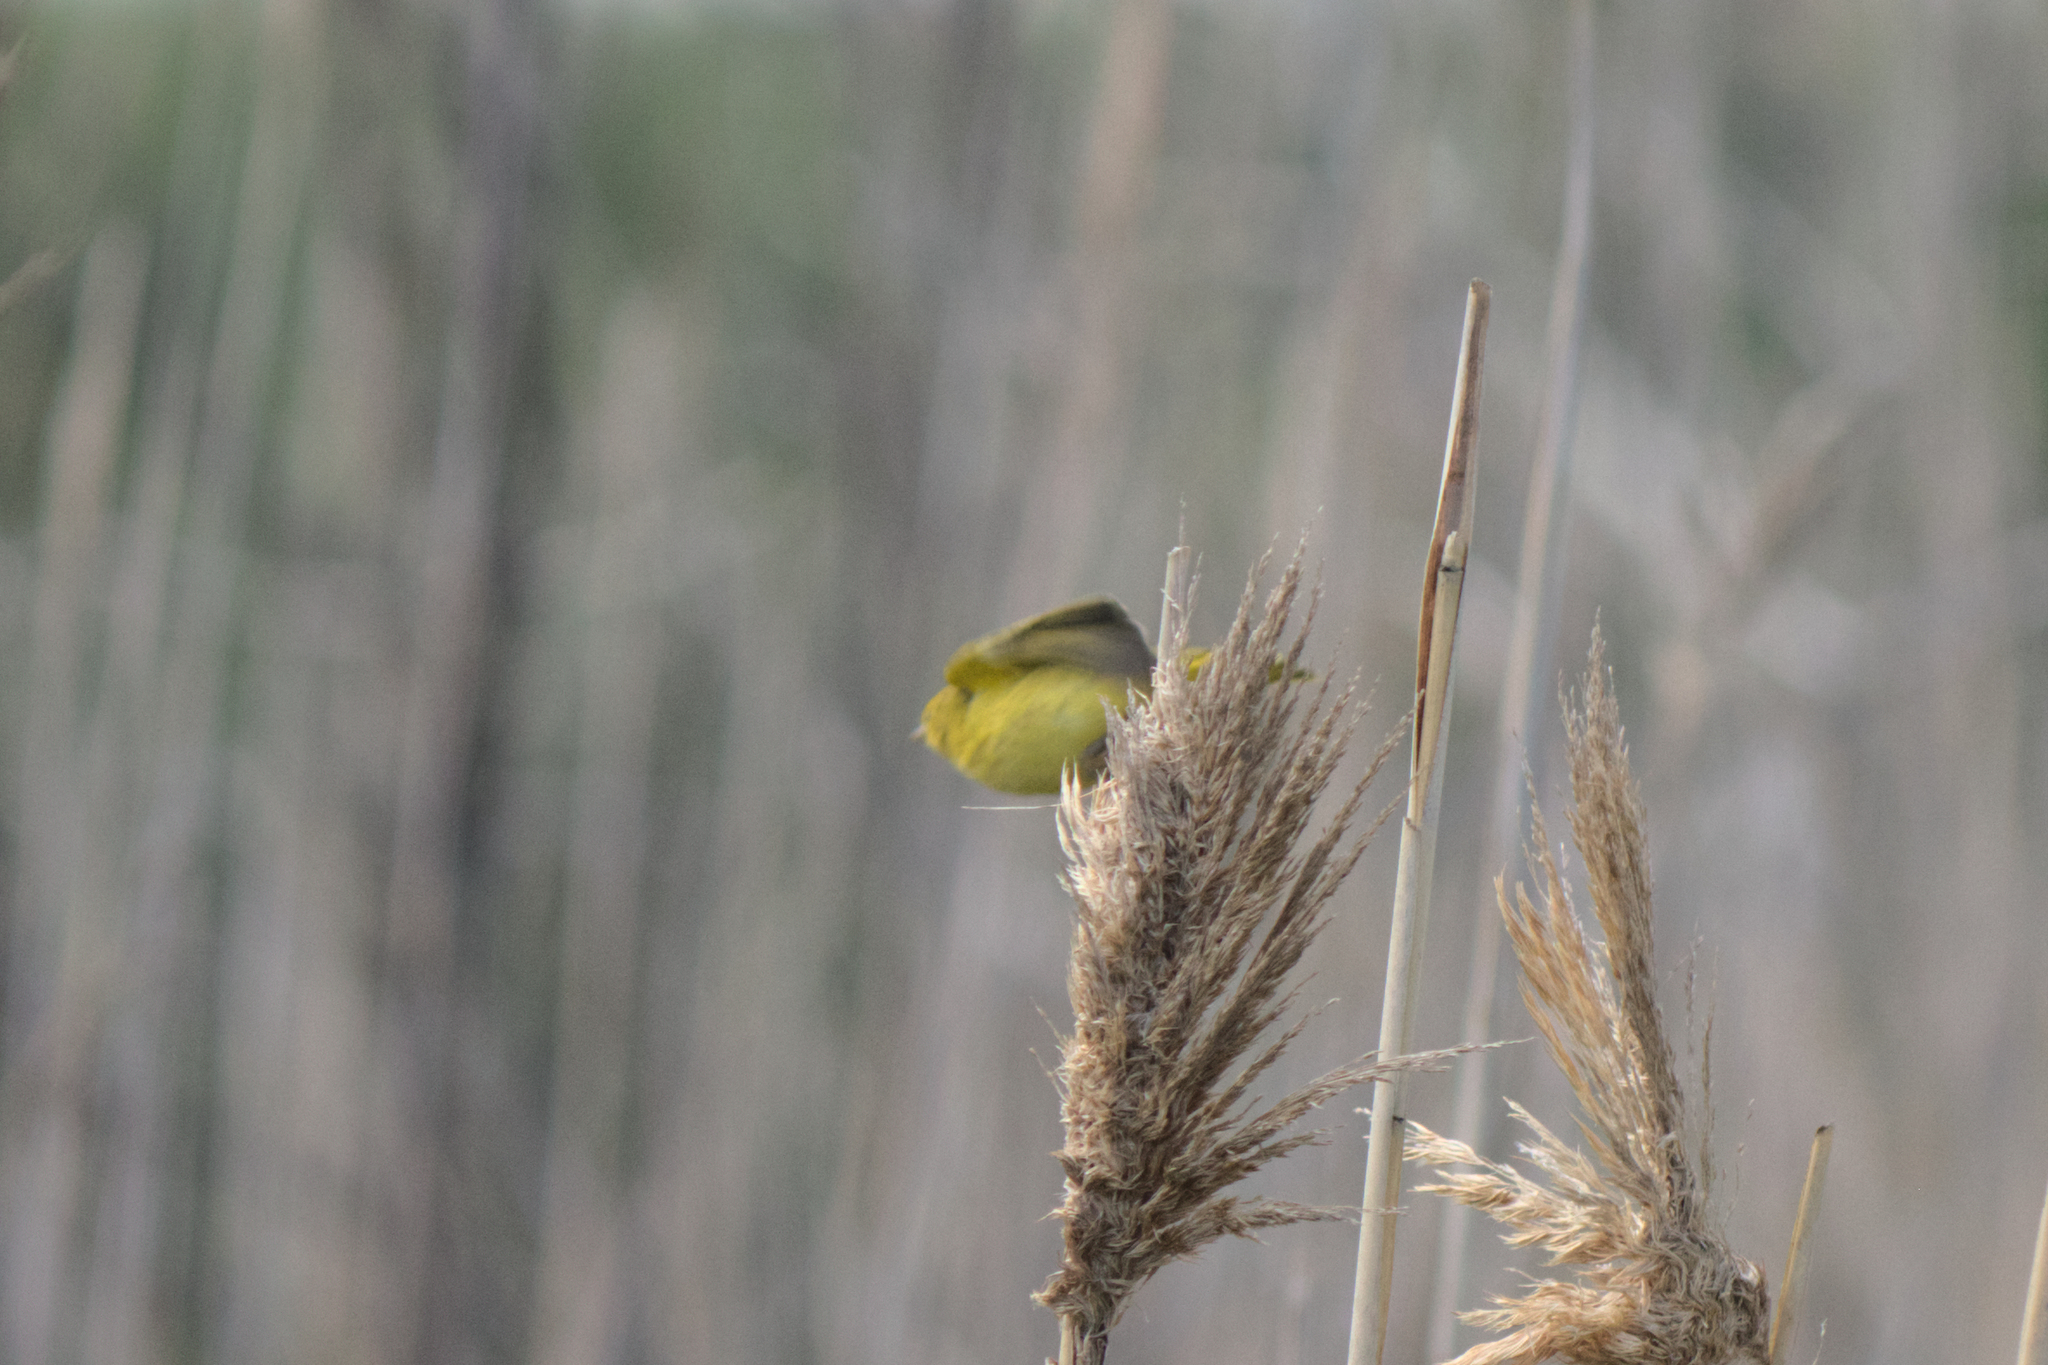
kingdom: Animalia
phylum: Chordata
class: Aves
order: Passeriformes
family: Parulidae
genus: Setophaga
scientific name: Setophaga petechia
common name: Yellow warbler
